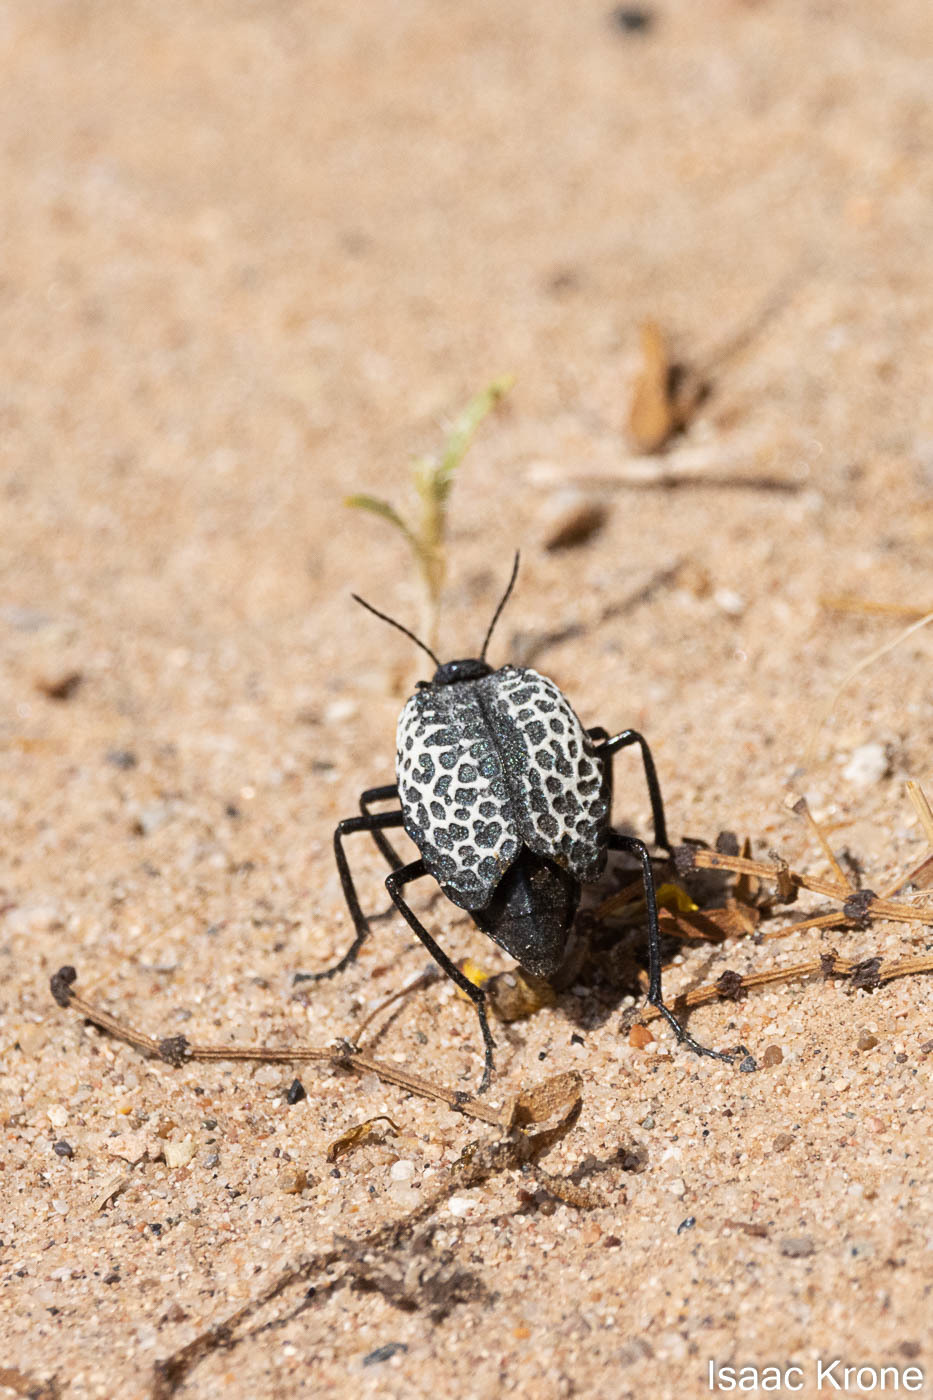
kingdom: Animalia
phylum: Arthropoda
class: Insecta
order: Coleoptera
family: Meloidae
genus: Cysteodemus
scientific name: Cysteodemus armatus
